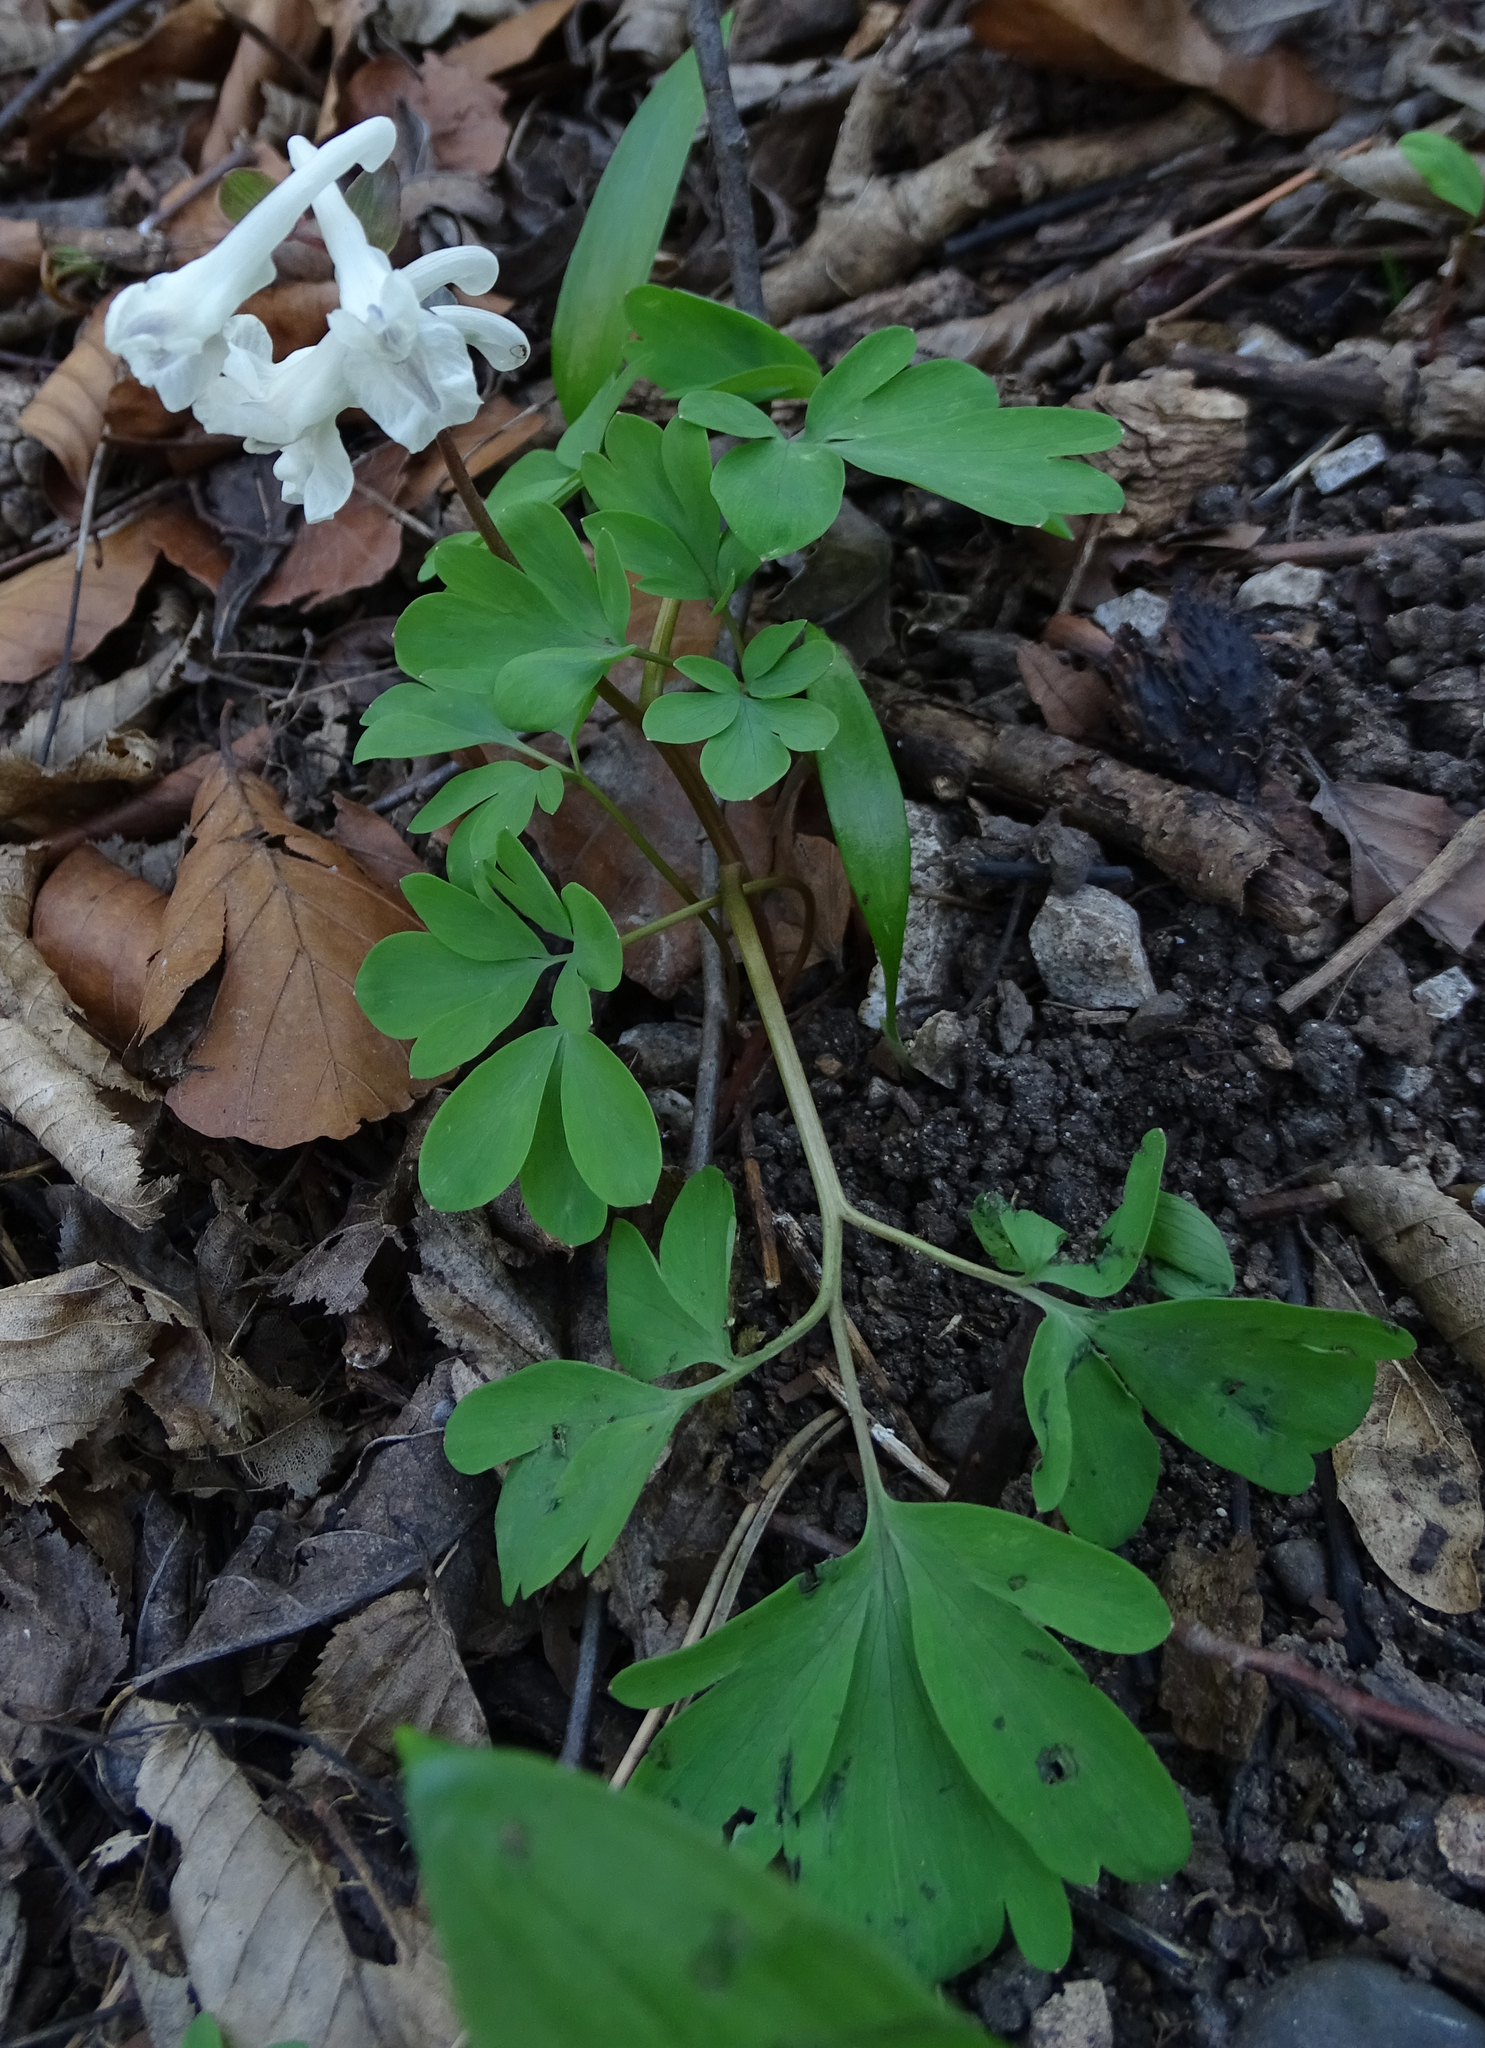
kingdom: Plantae
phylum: Tracheophyta
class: Magnoliopsida
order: Ranunculales
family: Papaveraceae
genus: Corydalis
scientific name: Corydalis cava
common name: Hollowroot
